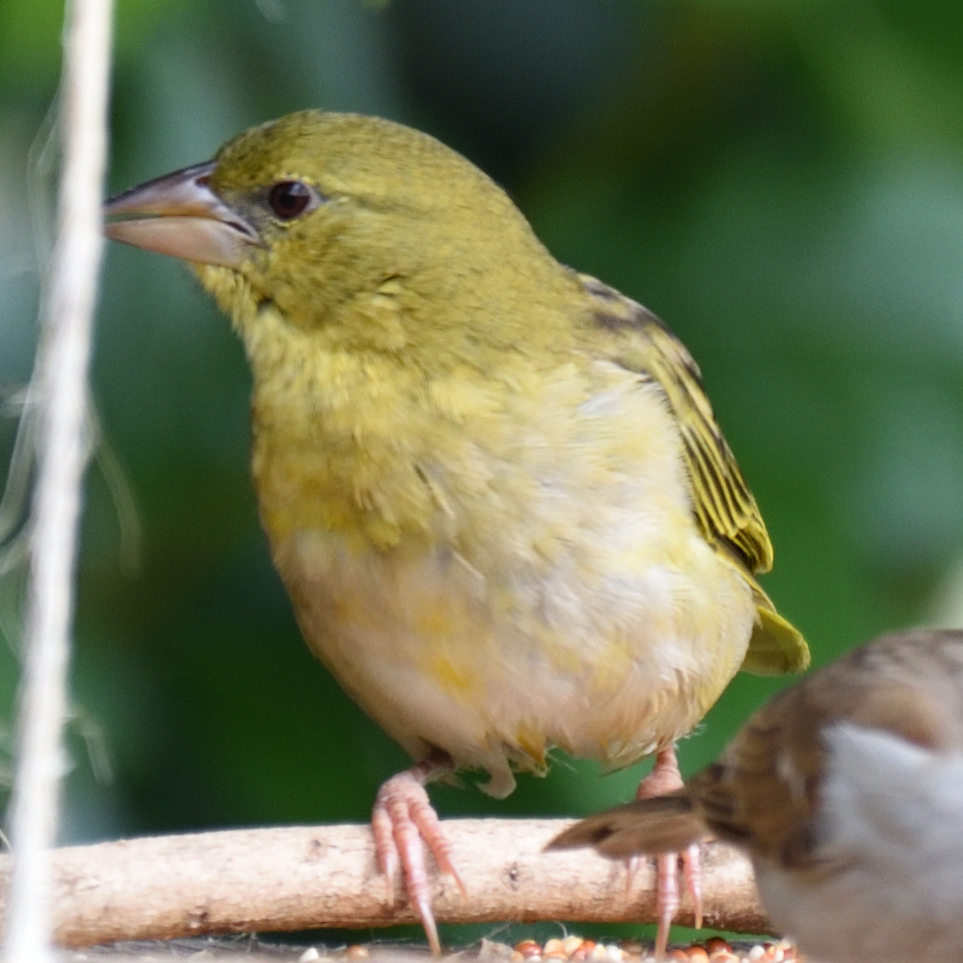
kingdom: Animalia
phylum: Chordata
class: Aves
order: Passeriformes
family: Ploceidae
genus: Ploceus
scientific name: Ploceus capensis
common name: Cape weaver
